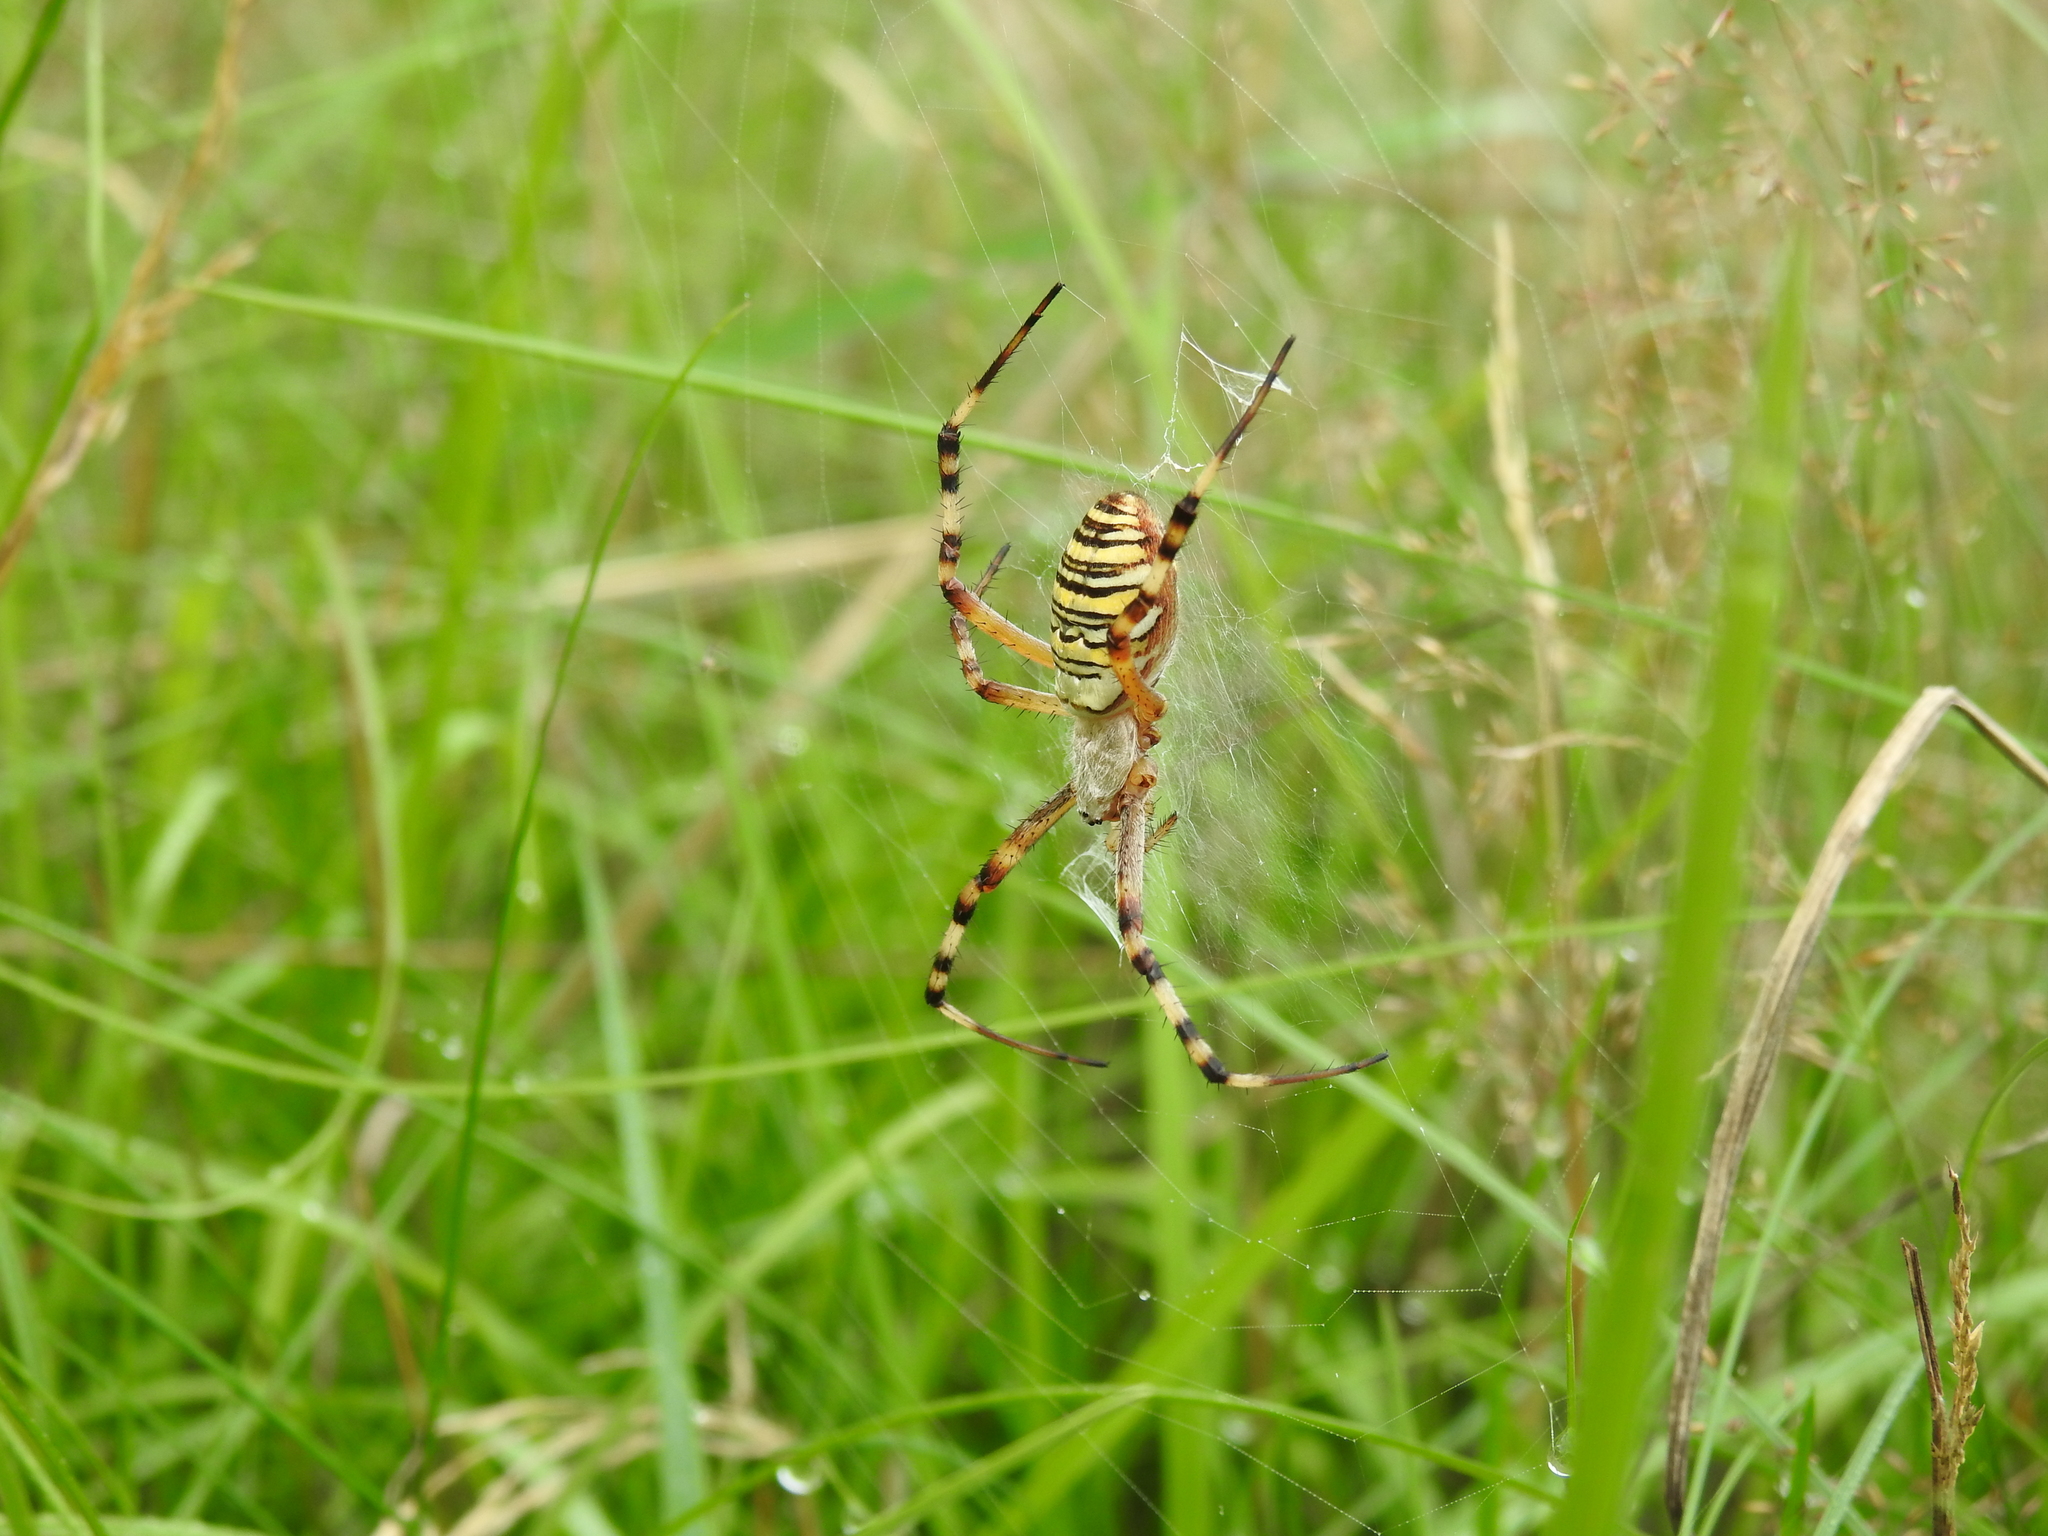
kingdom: Animalia
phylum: Arthropoda
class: Arachnida
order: Araneae
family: Araneidae
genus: Argiope
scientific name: Argiope bruennichi
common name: Wasp spider
